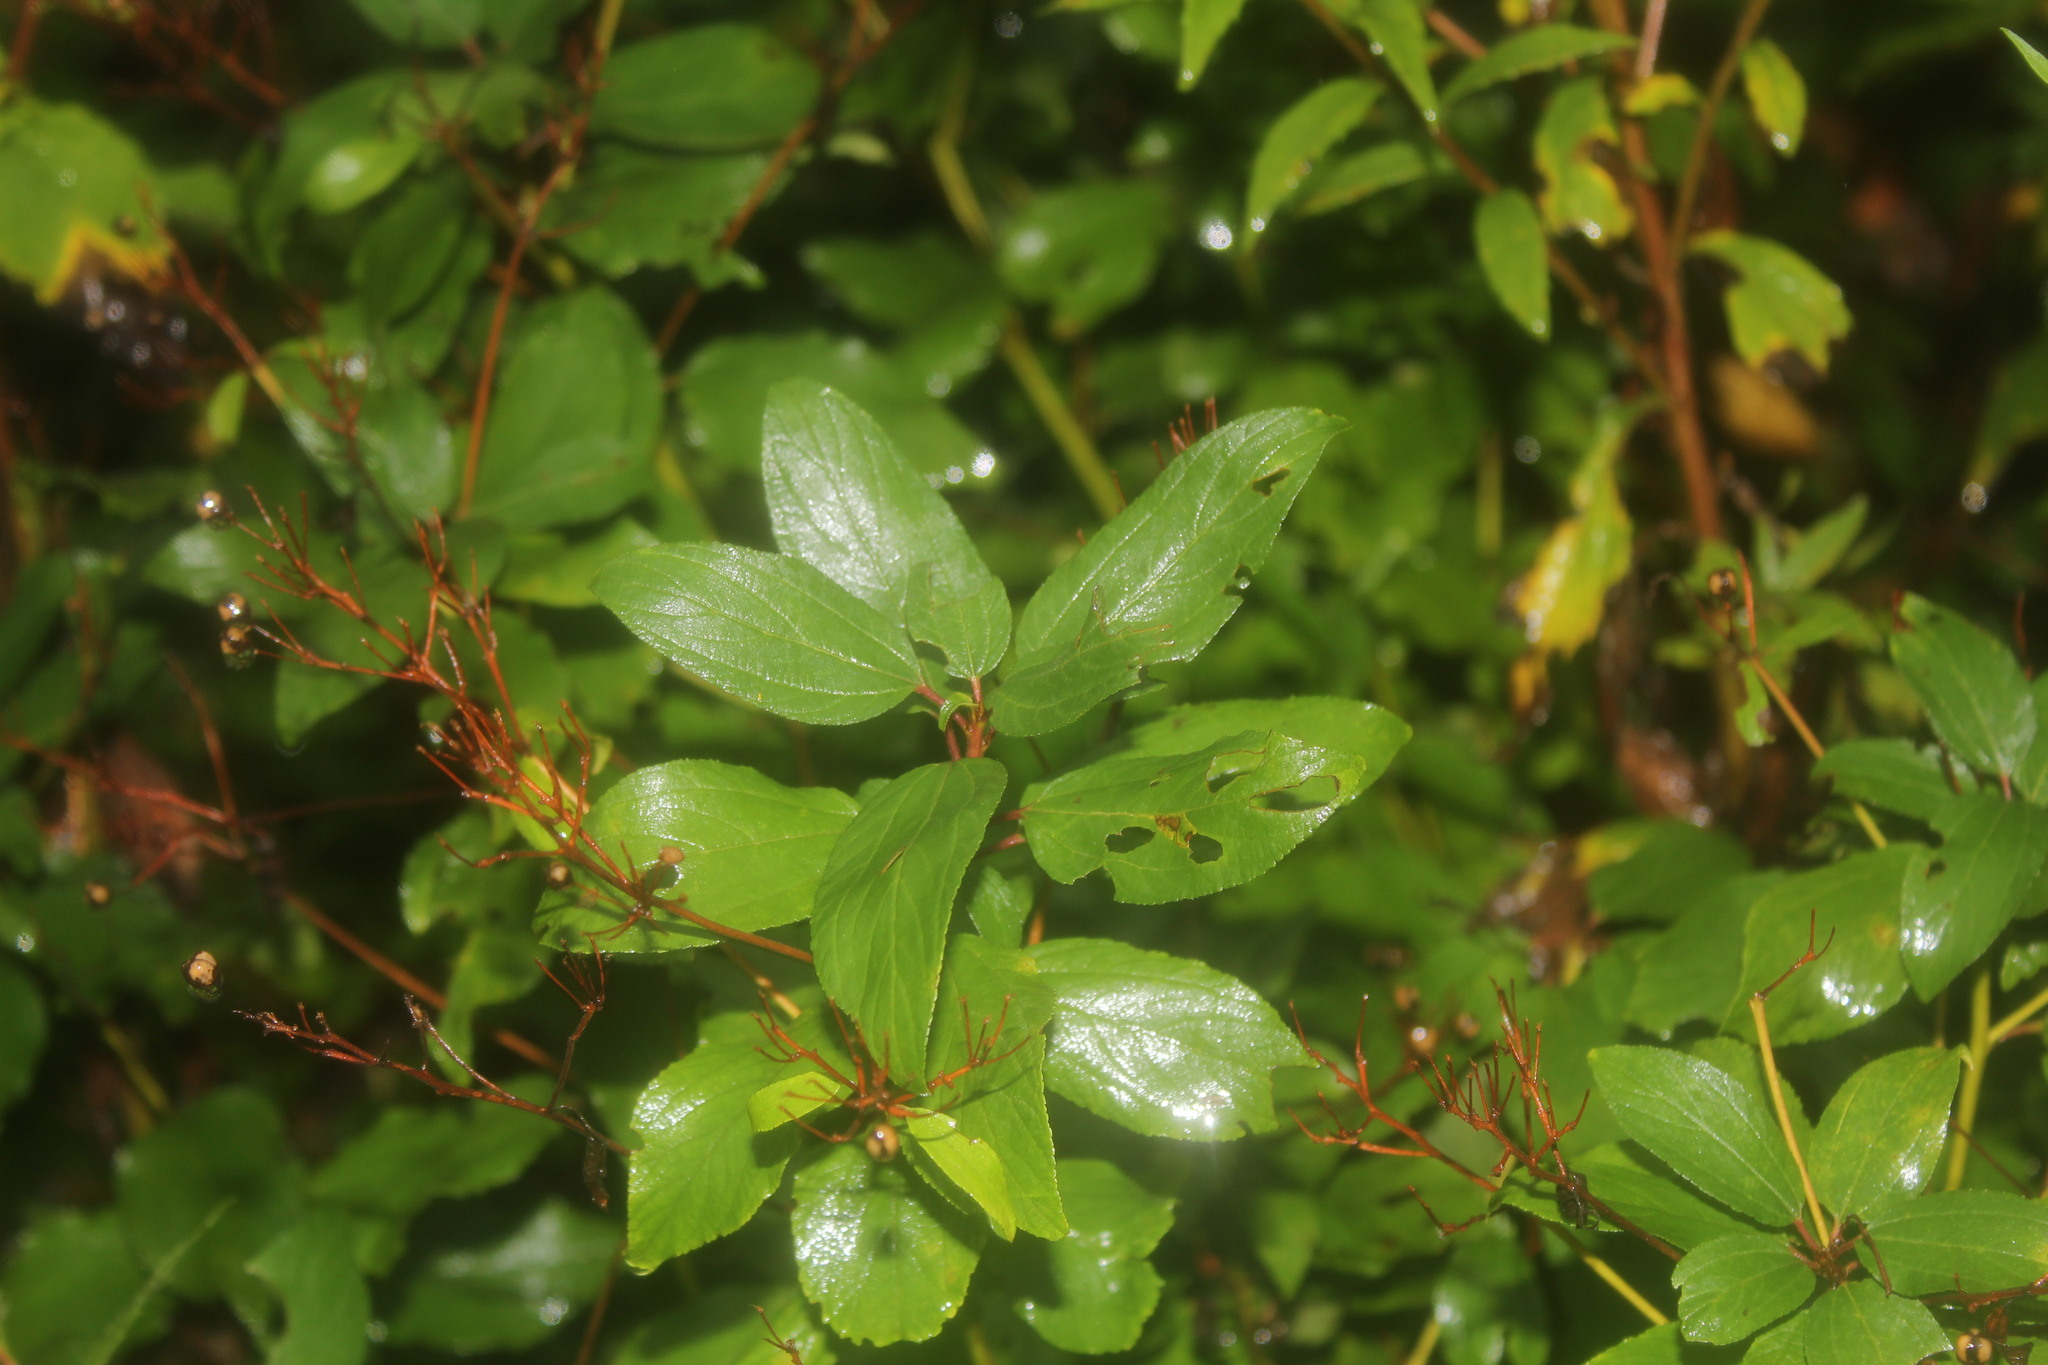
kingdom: Plantae
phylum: Tracheophyta
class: Magnoliopsida
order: Rosales
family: Rhamnaceae
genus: Ceanothus
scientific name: Ceanothus americanus
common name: Redroot
